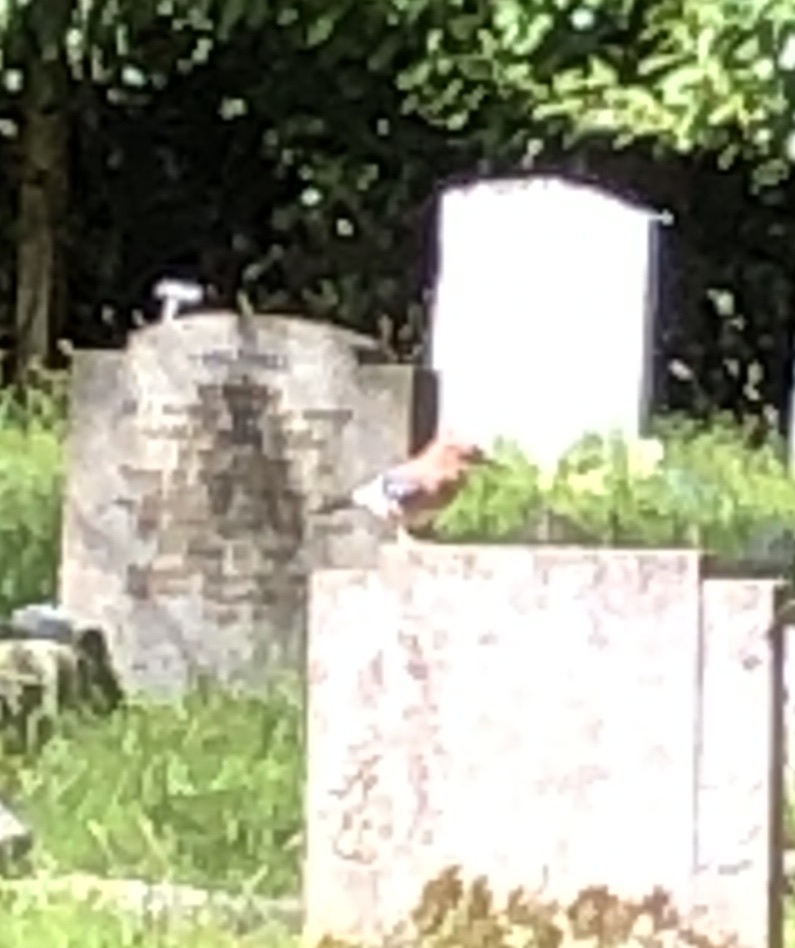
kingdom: Animalia
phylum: Chordata
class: Aves
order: Passeriformes
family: Corvidae
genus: Garrulus
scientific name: Garrulus glandarius
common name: Eurasian jay
